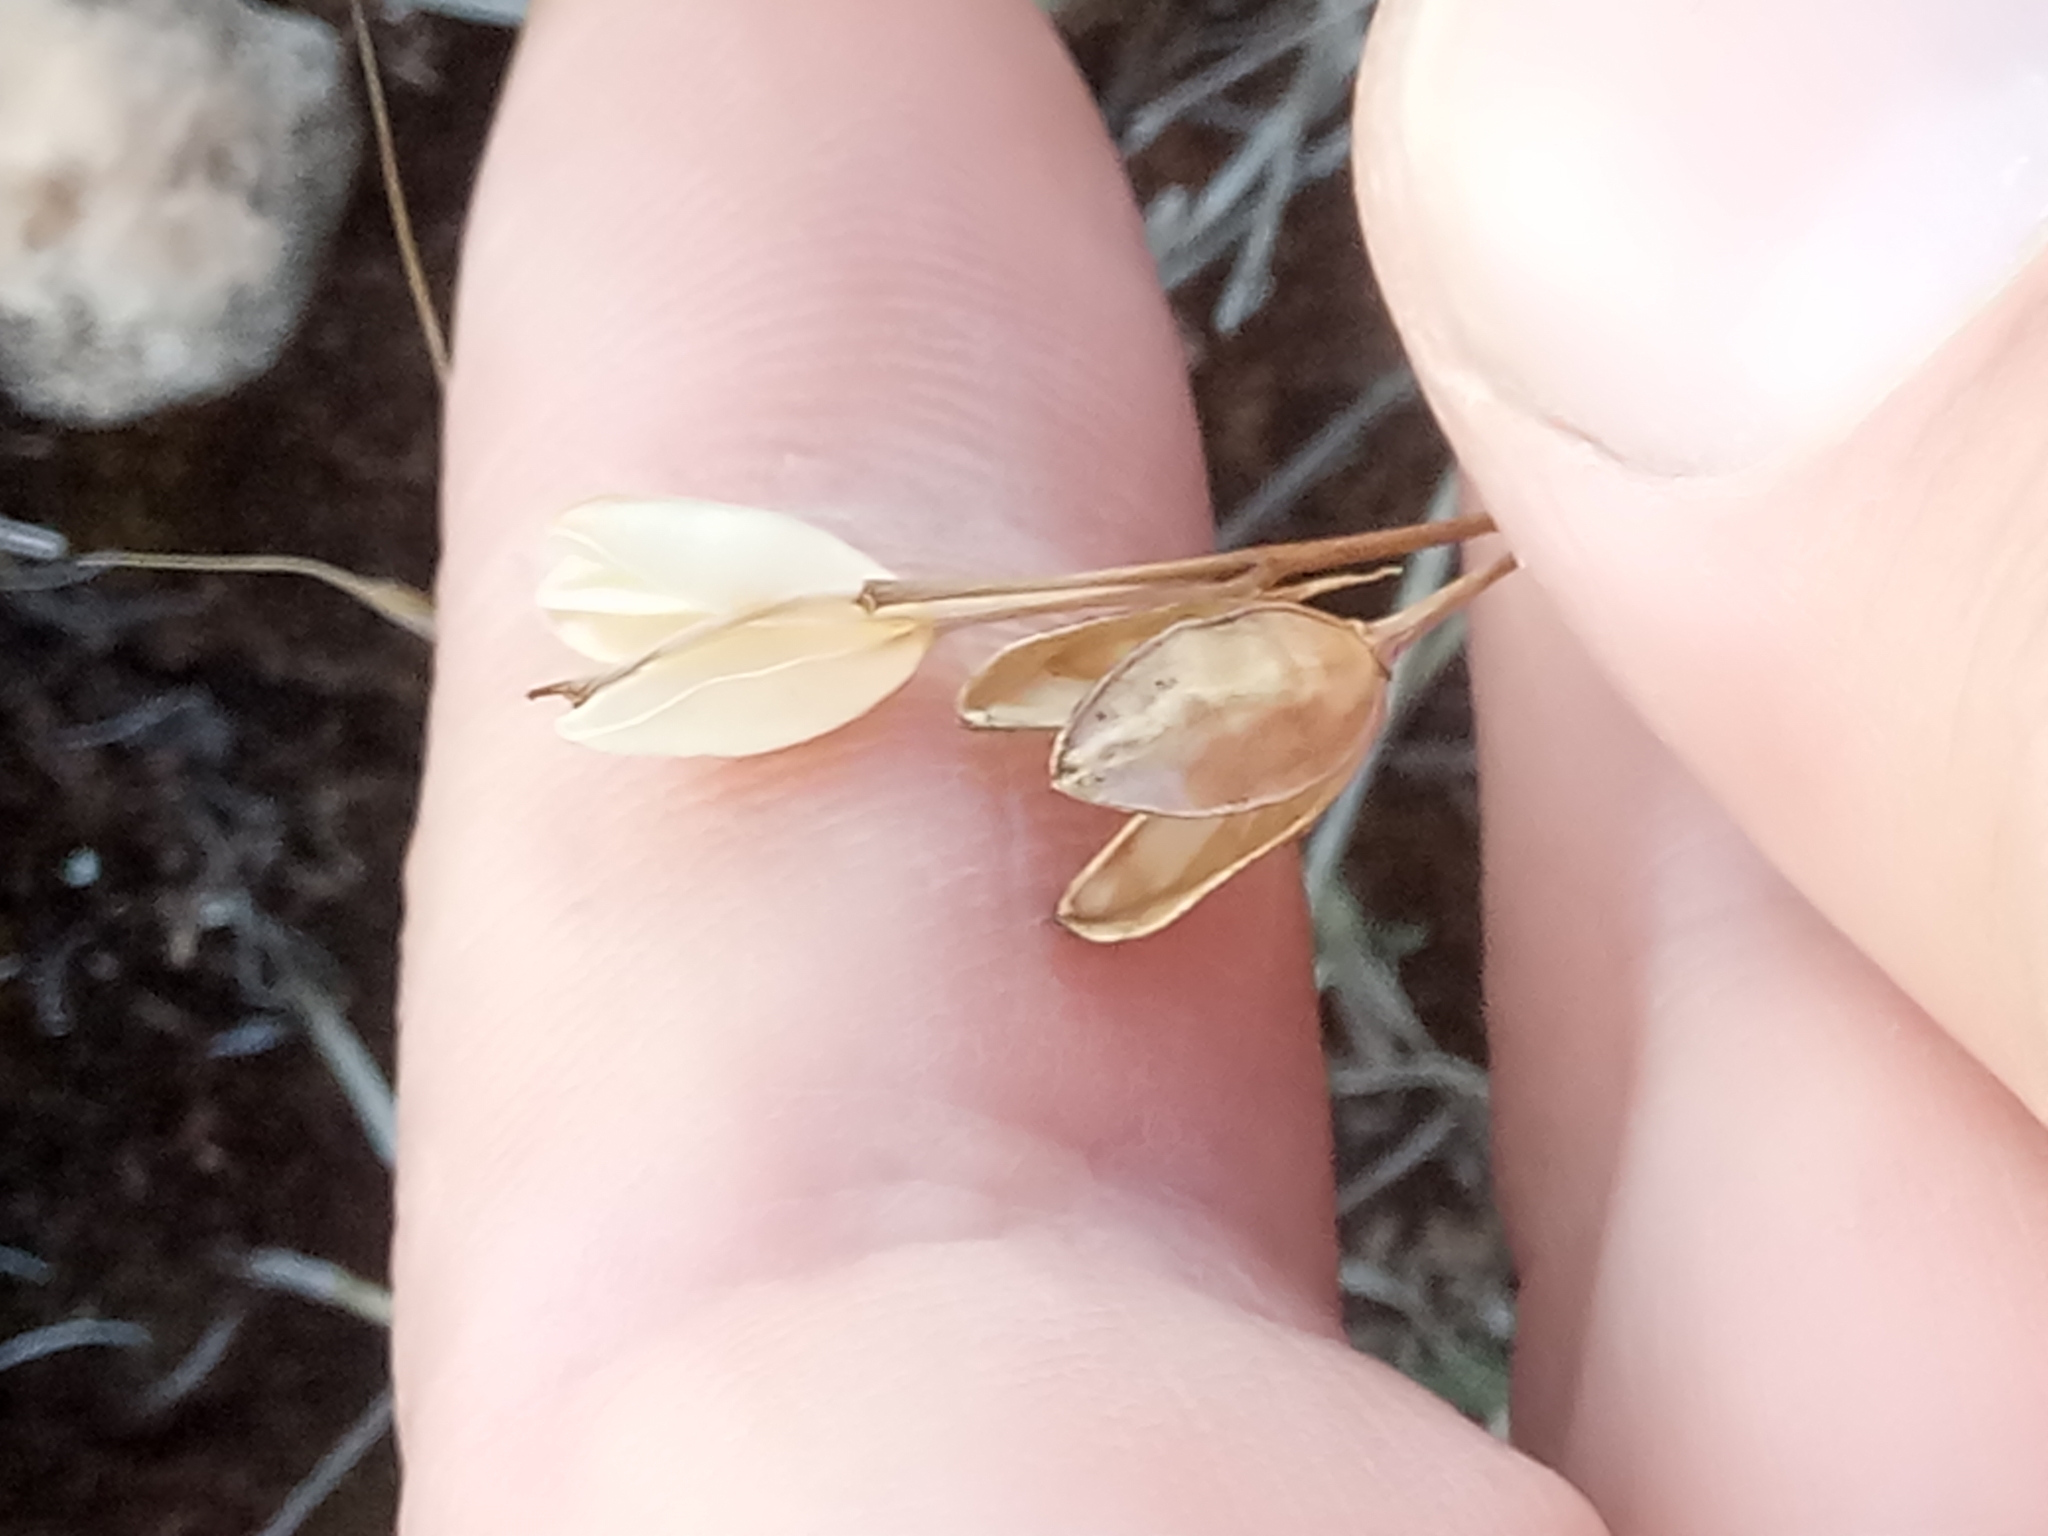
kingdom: Plantae
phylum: Tracheophyta
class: Liliopsida
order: Asparagales
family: Asparagaceae
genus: Drimia
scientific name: Drimia fugax
